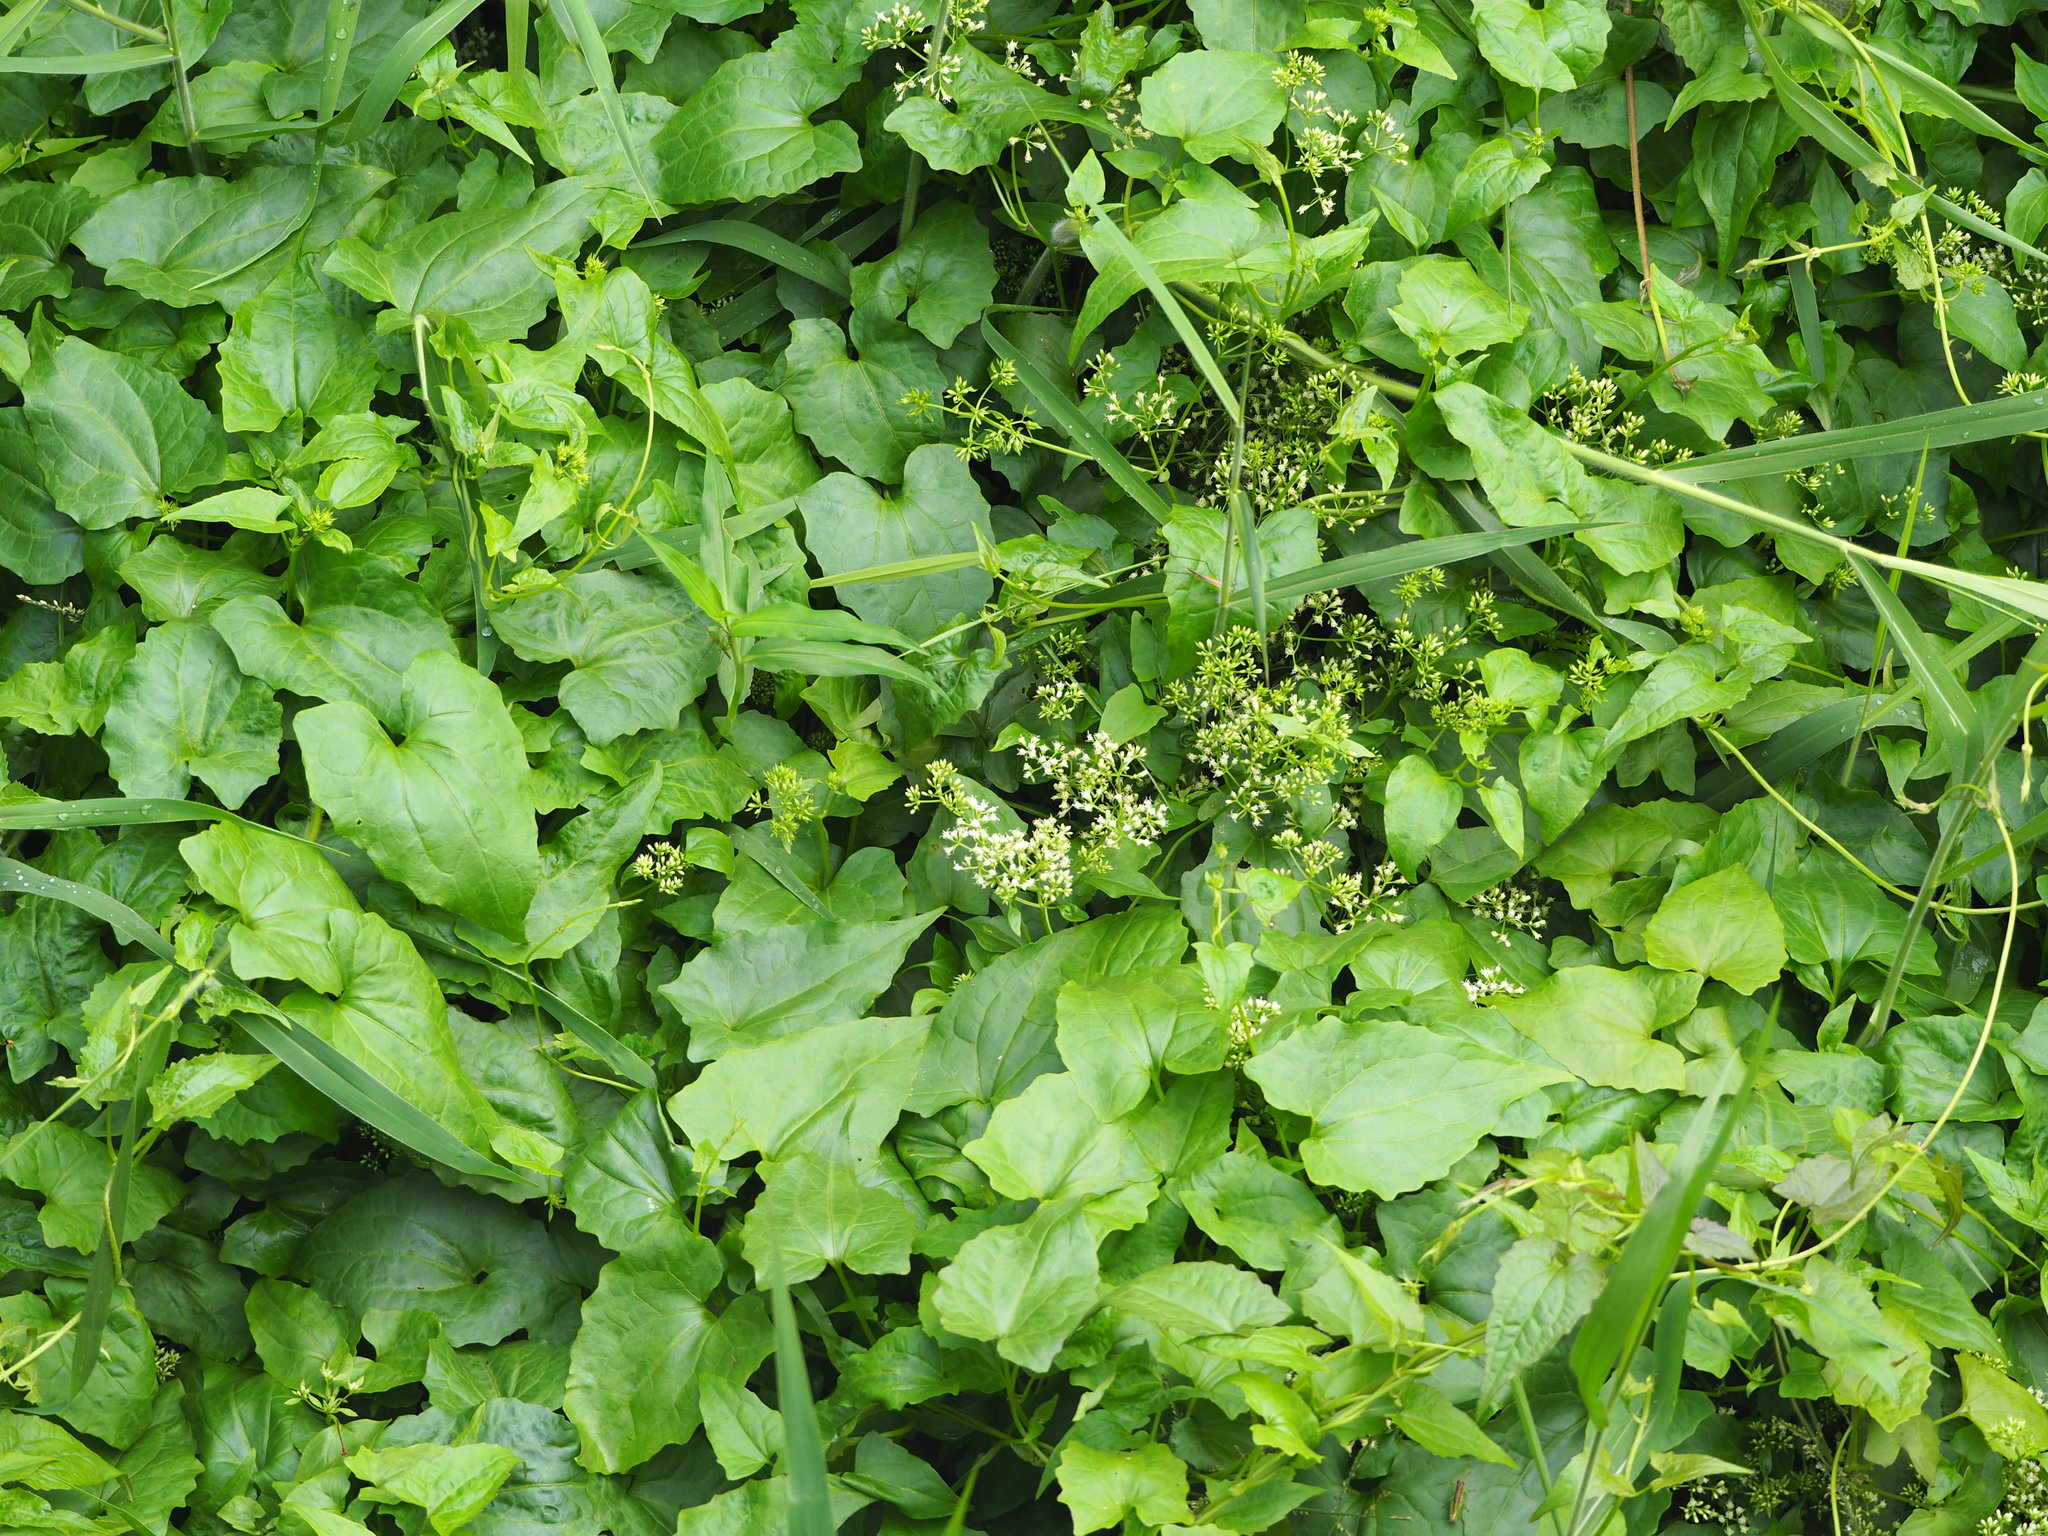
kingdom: Plantae
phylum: Tracheophyta
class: Magnoliopsida
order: Asterales
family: Asteraceae
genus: Mikania
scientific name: Mikania micrantha
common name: Mile-a-minute
